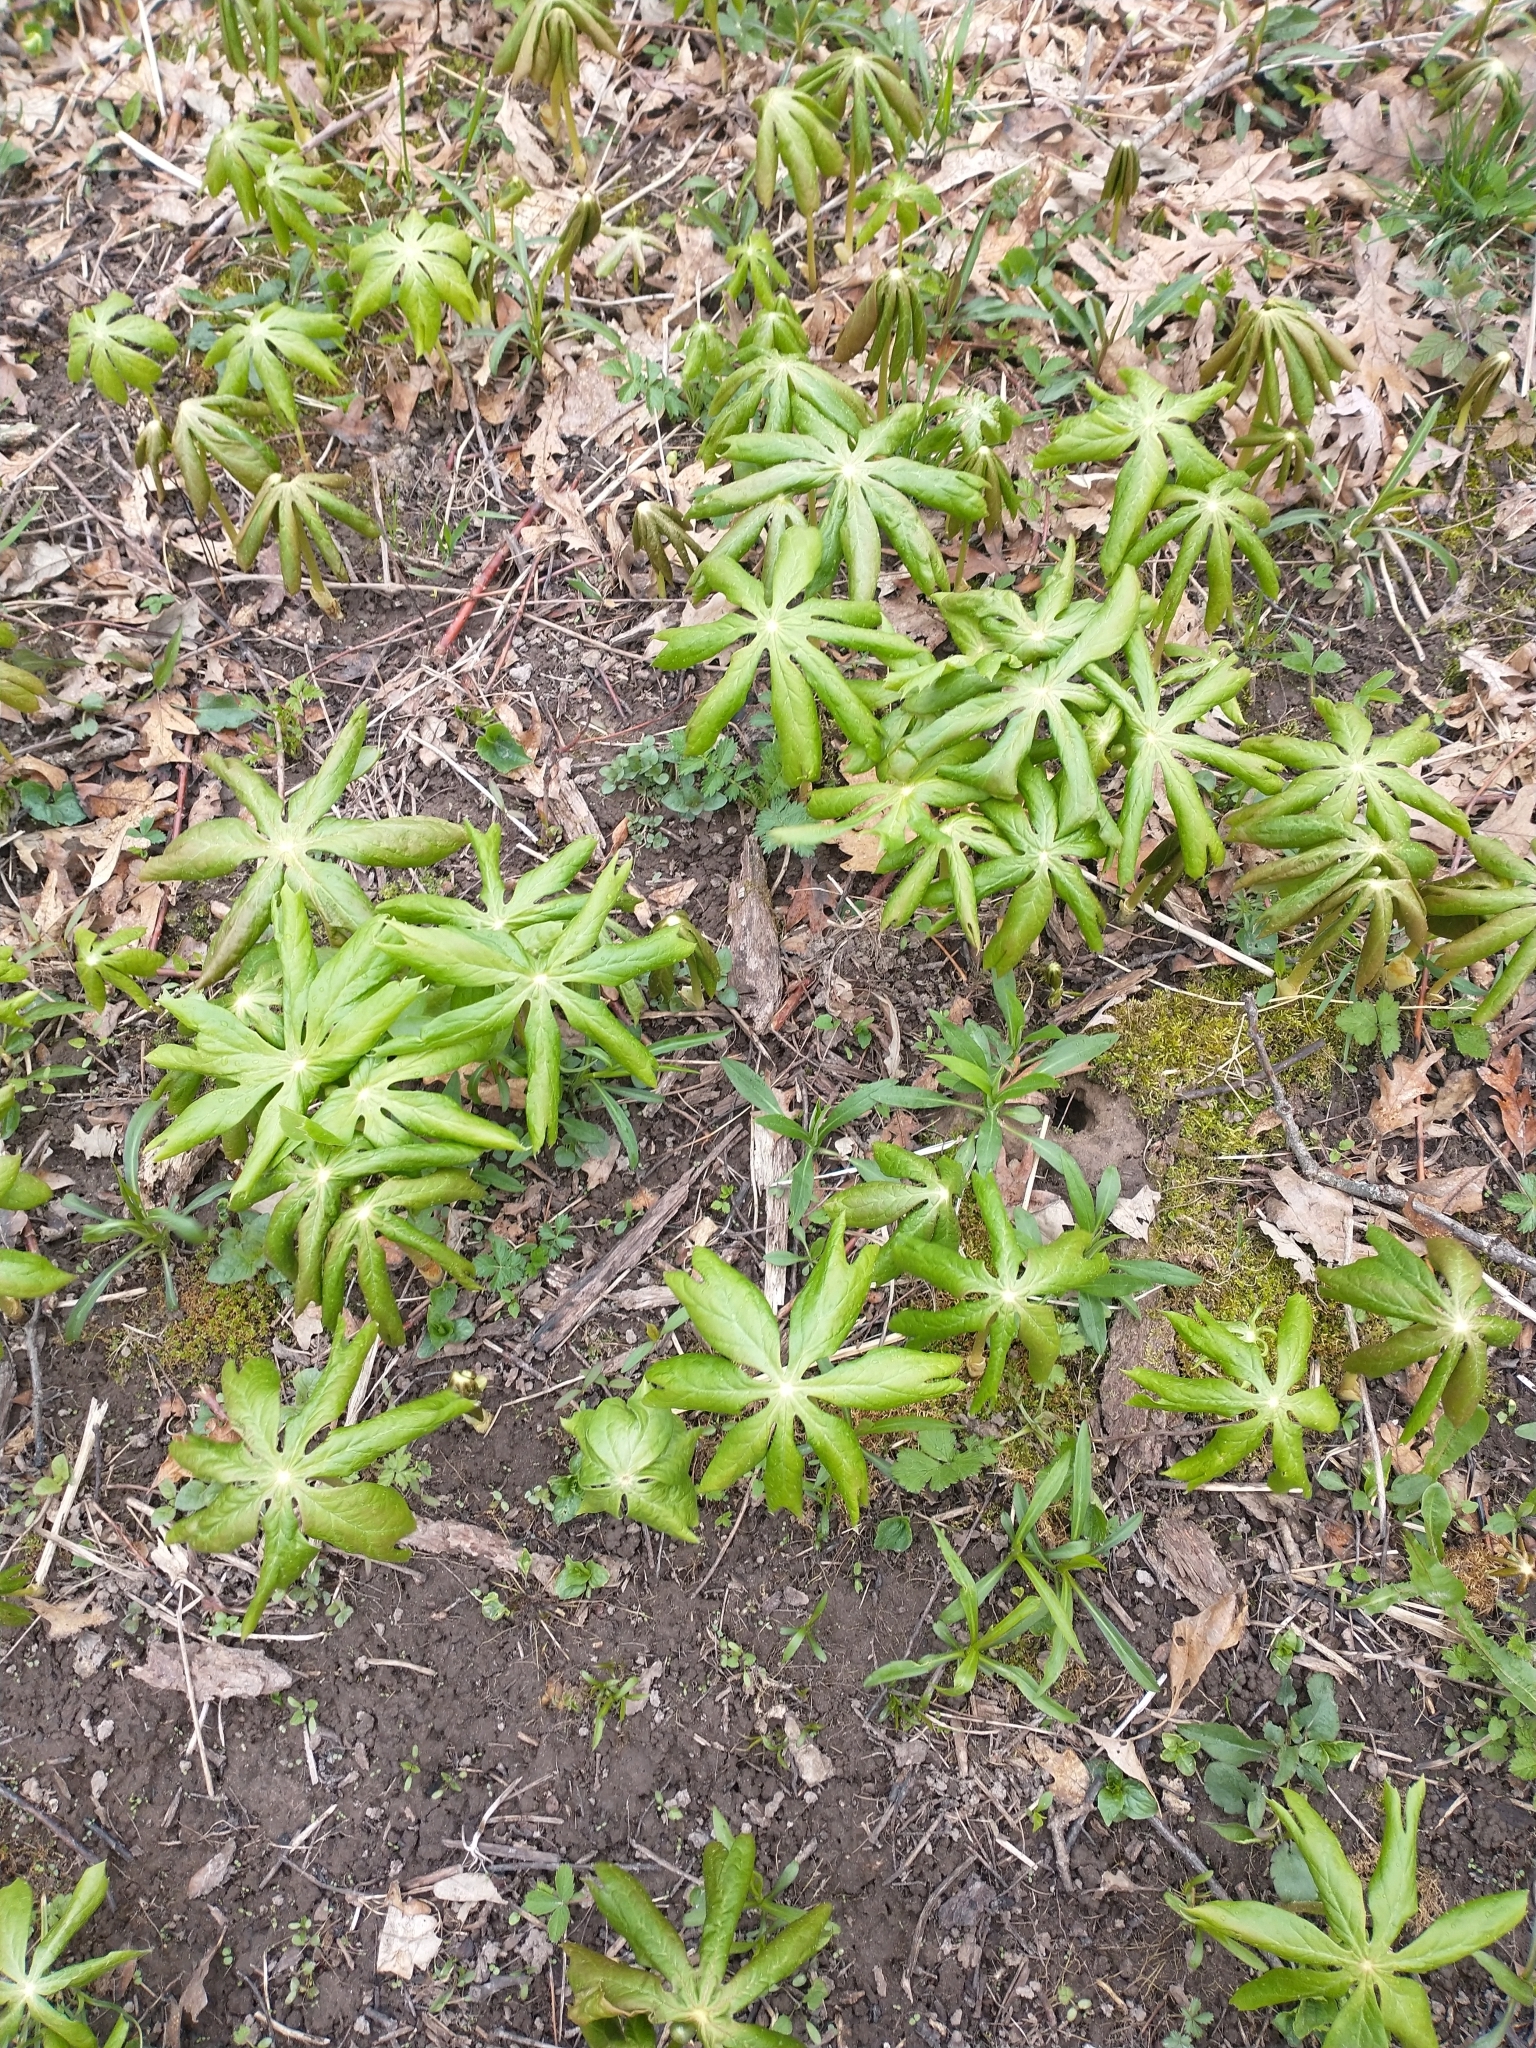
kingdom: Plantae
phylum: Tracheophyta
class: Magnoliopsida
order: Ranunculales
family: Berberidaceae
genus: Podophyllum
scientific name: Podophyllum peltatum
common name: Wild mandrake
